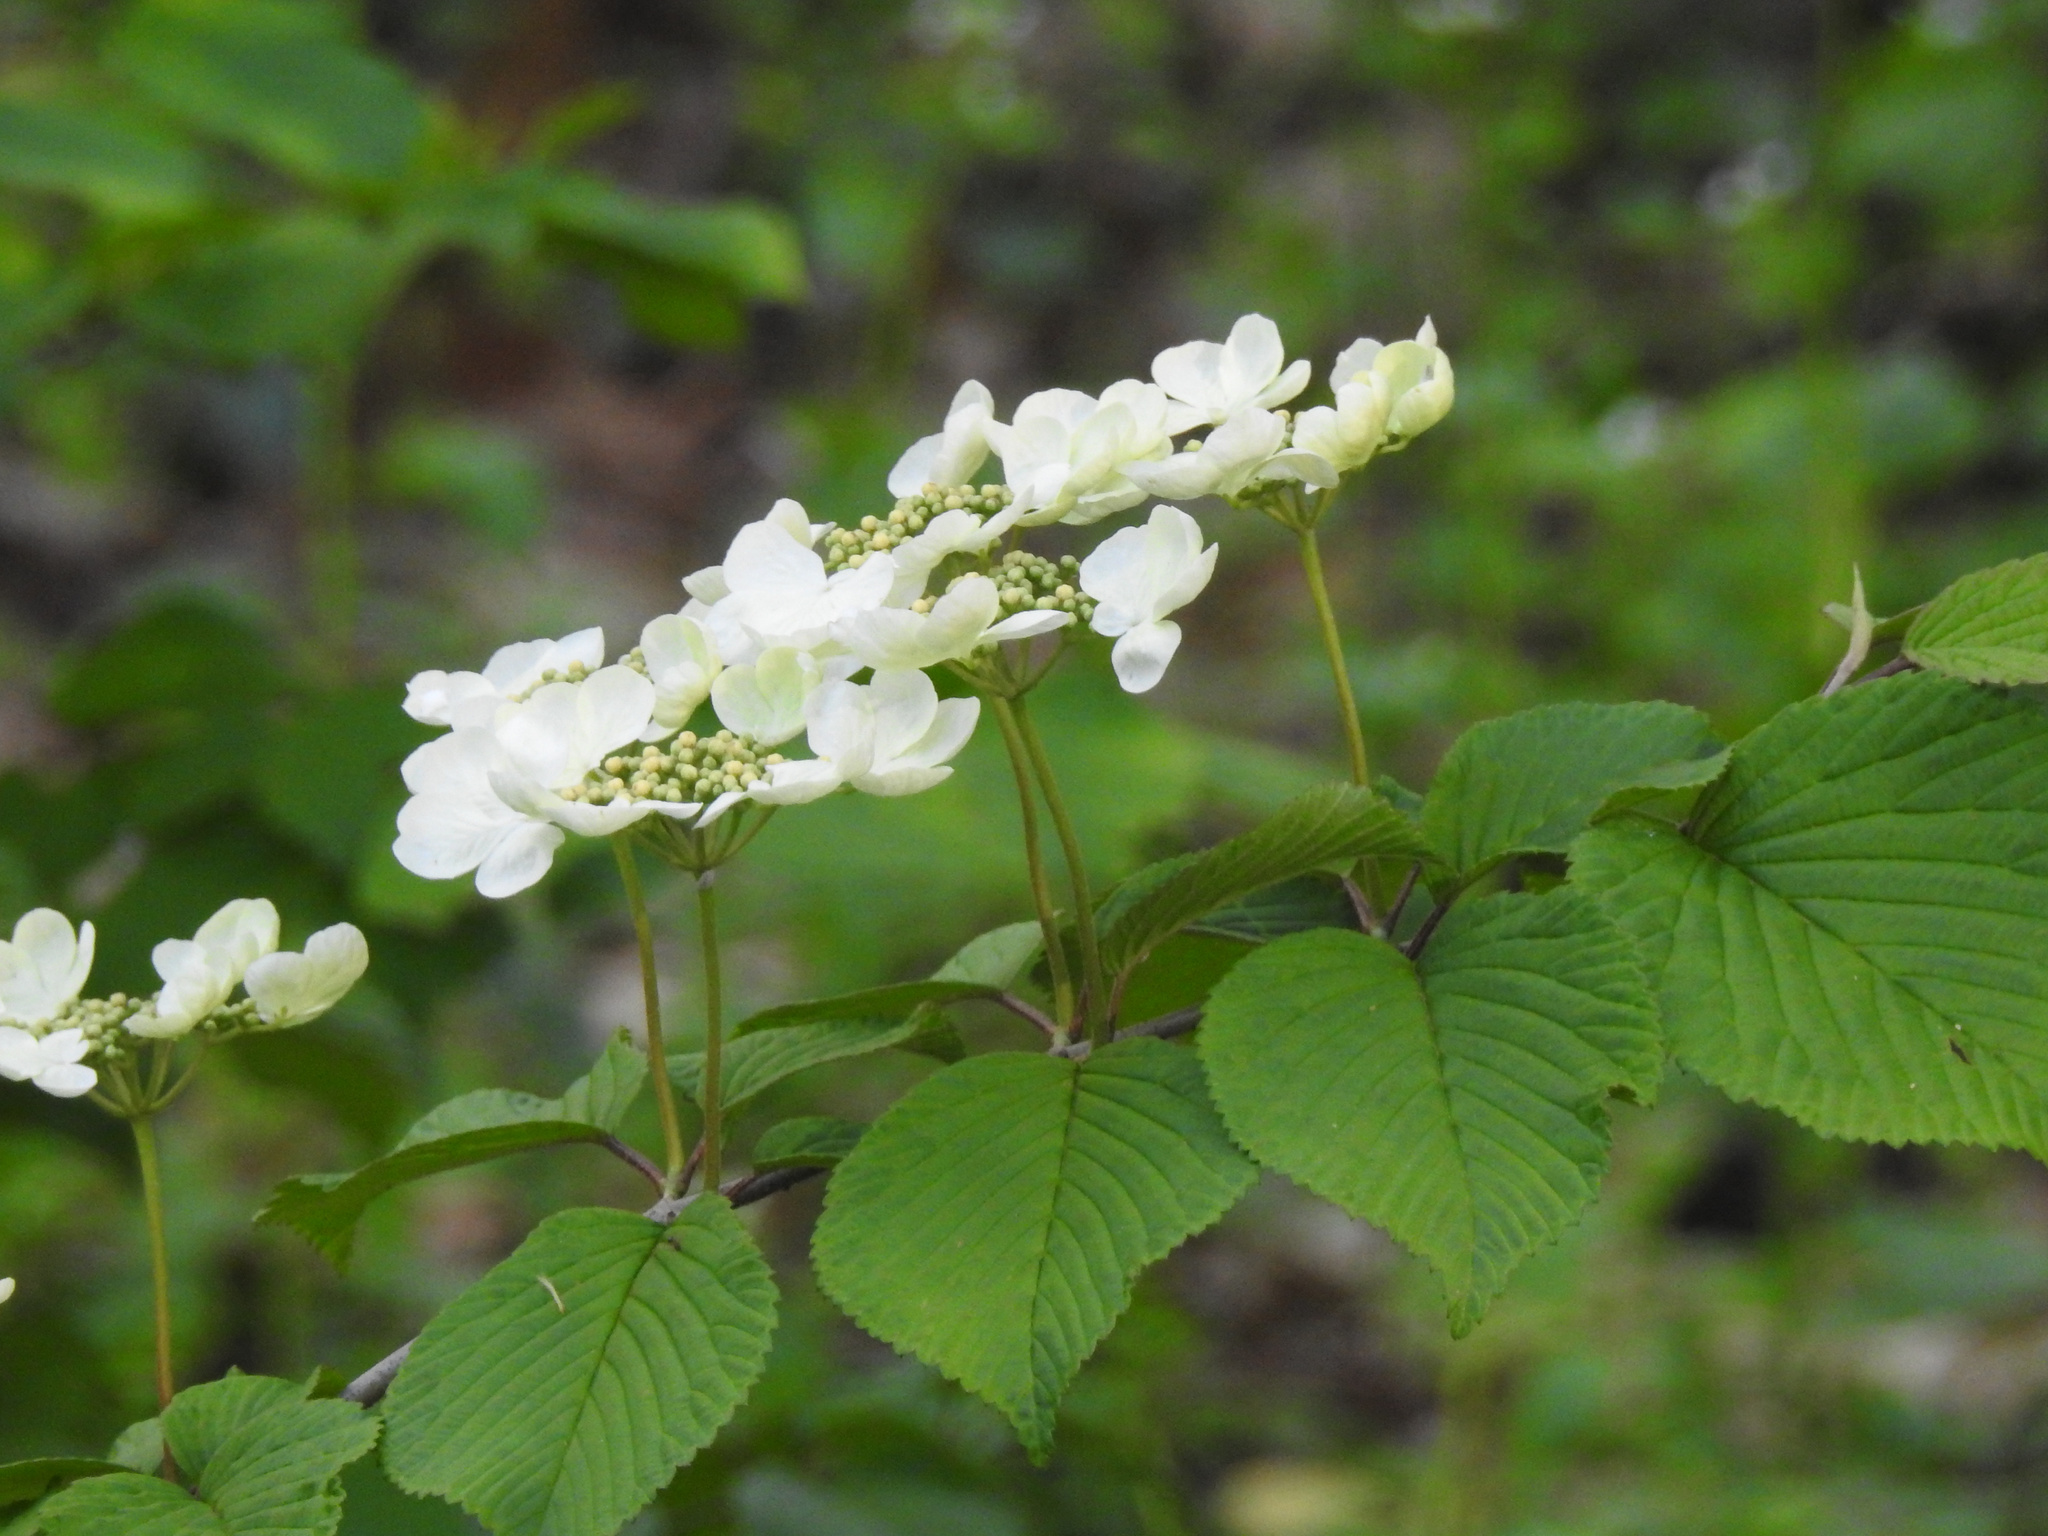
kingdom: Plantae
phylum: Tracheophyta
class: Magnoliopsida
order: Dipsacales
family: Viburnaceae
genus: Viburnum
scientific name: Viburnum plicatum
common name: Japanese snowball
